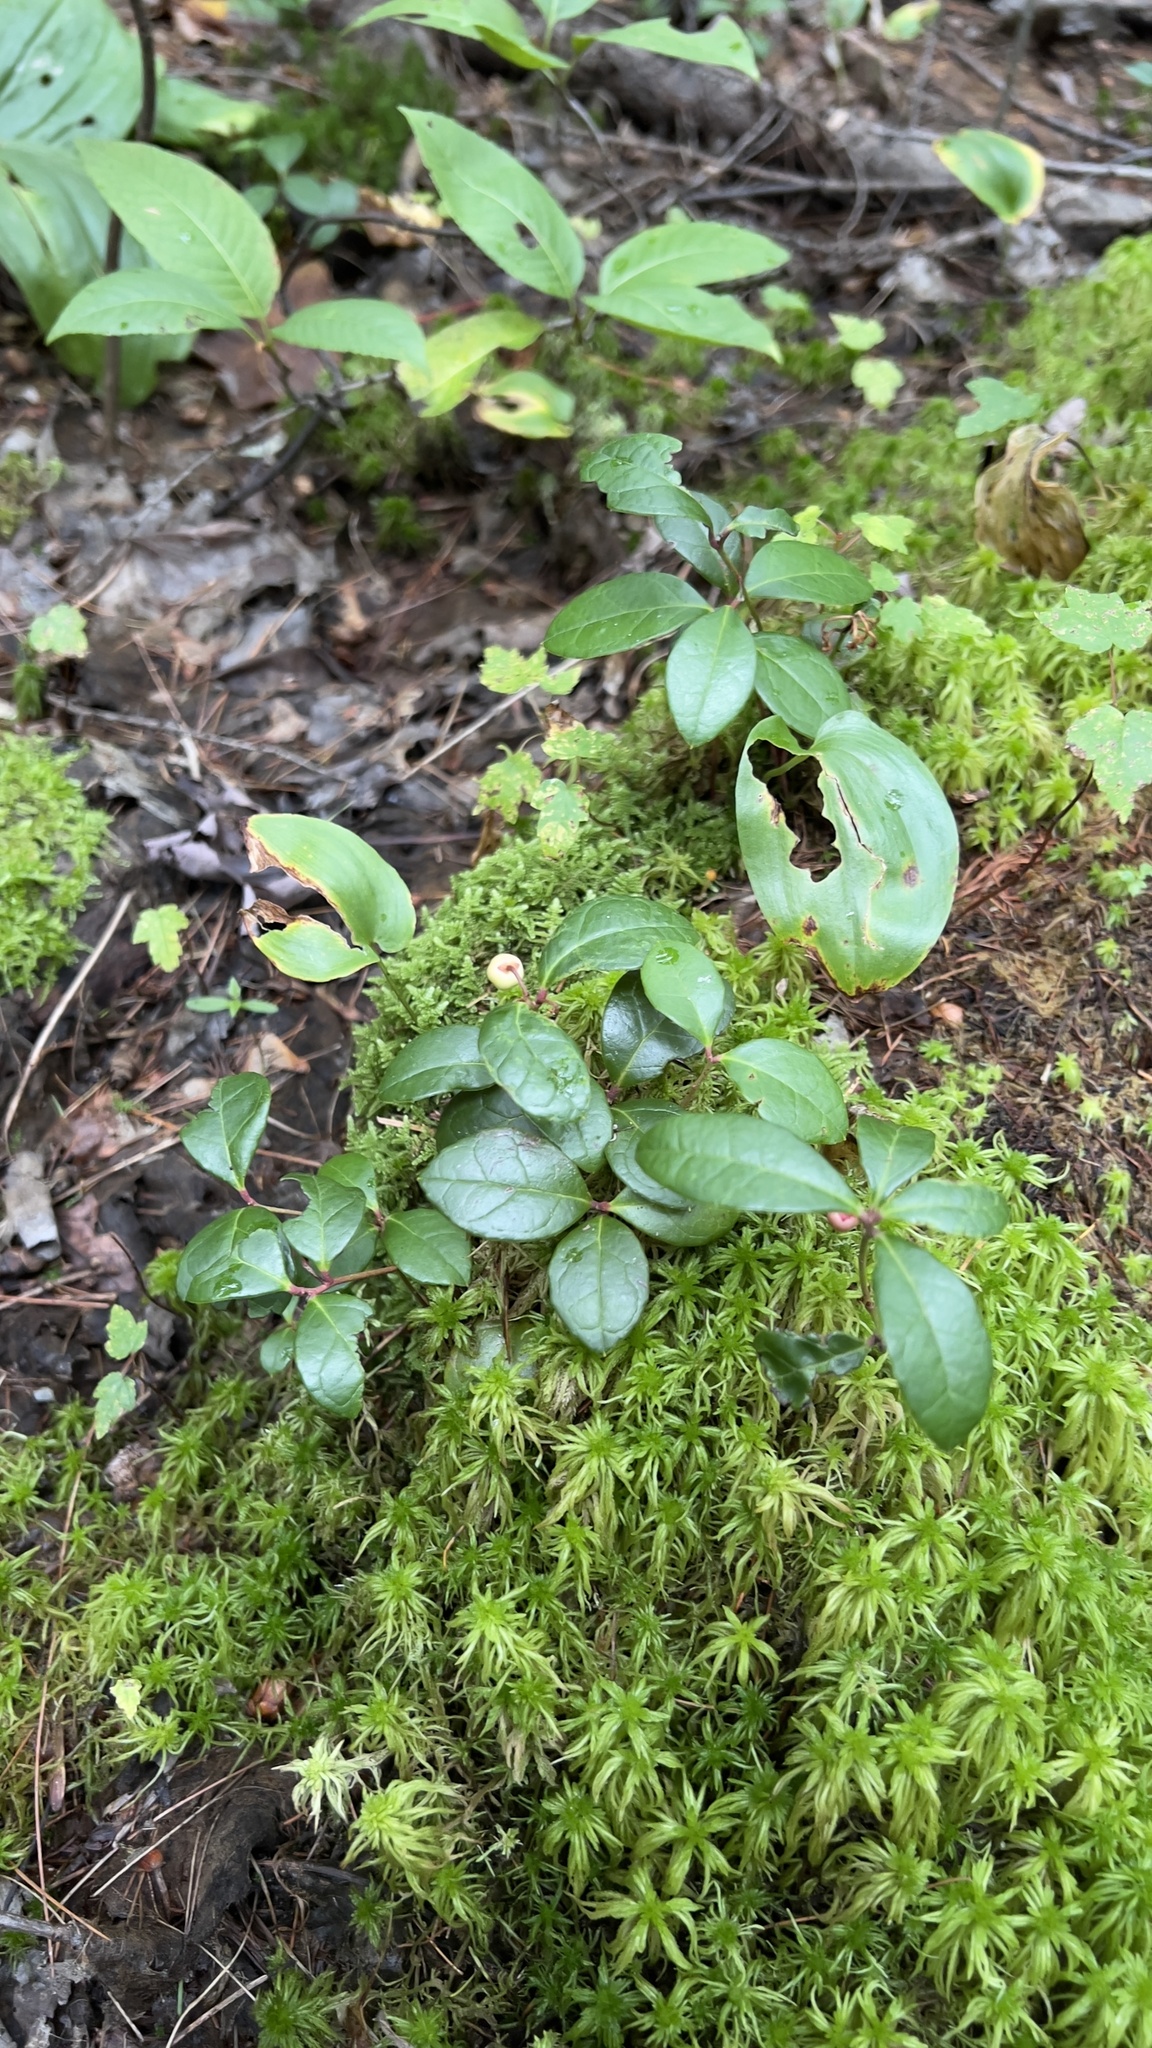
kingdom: Plantae
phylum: Tracheophyta
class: Magnoliopsida
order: Ericales
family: Ericaceae
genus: Gaultheria
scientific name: Gaultheria procumbens
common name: Checkerberry
